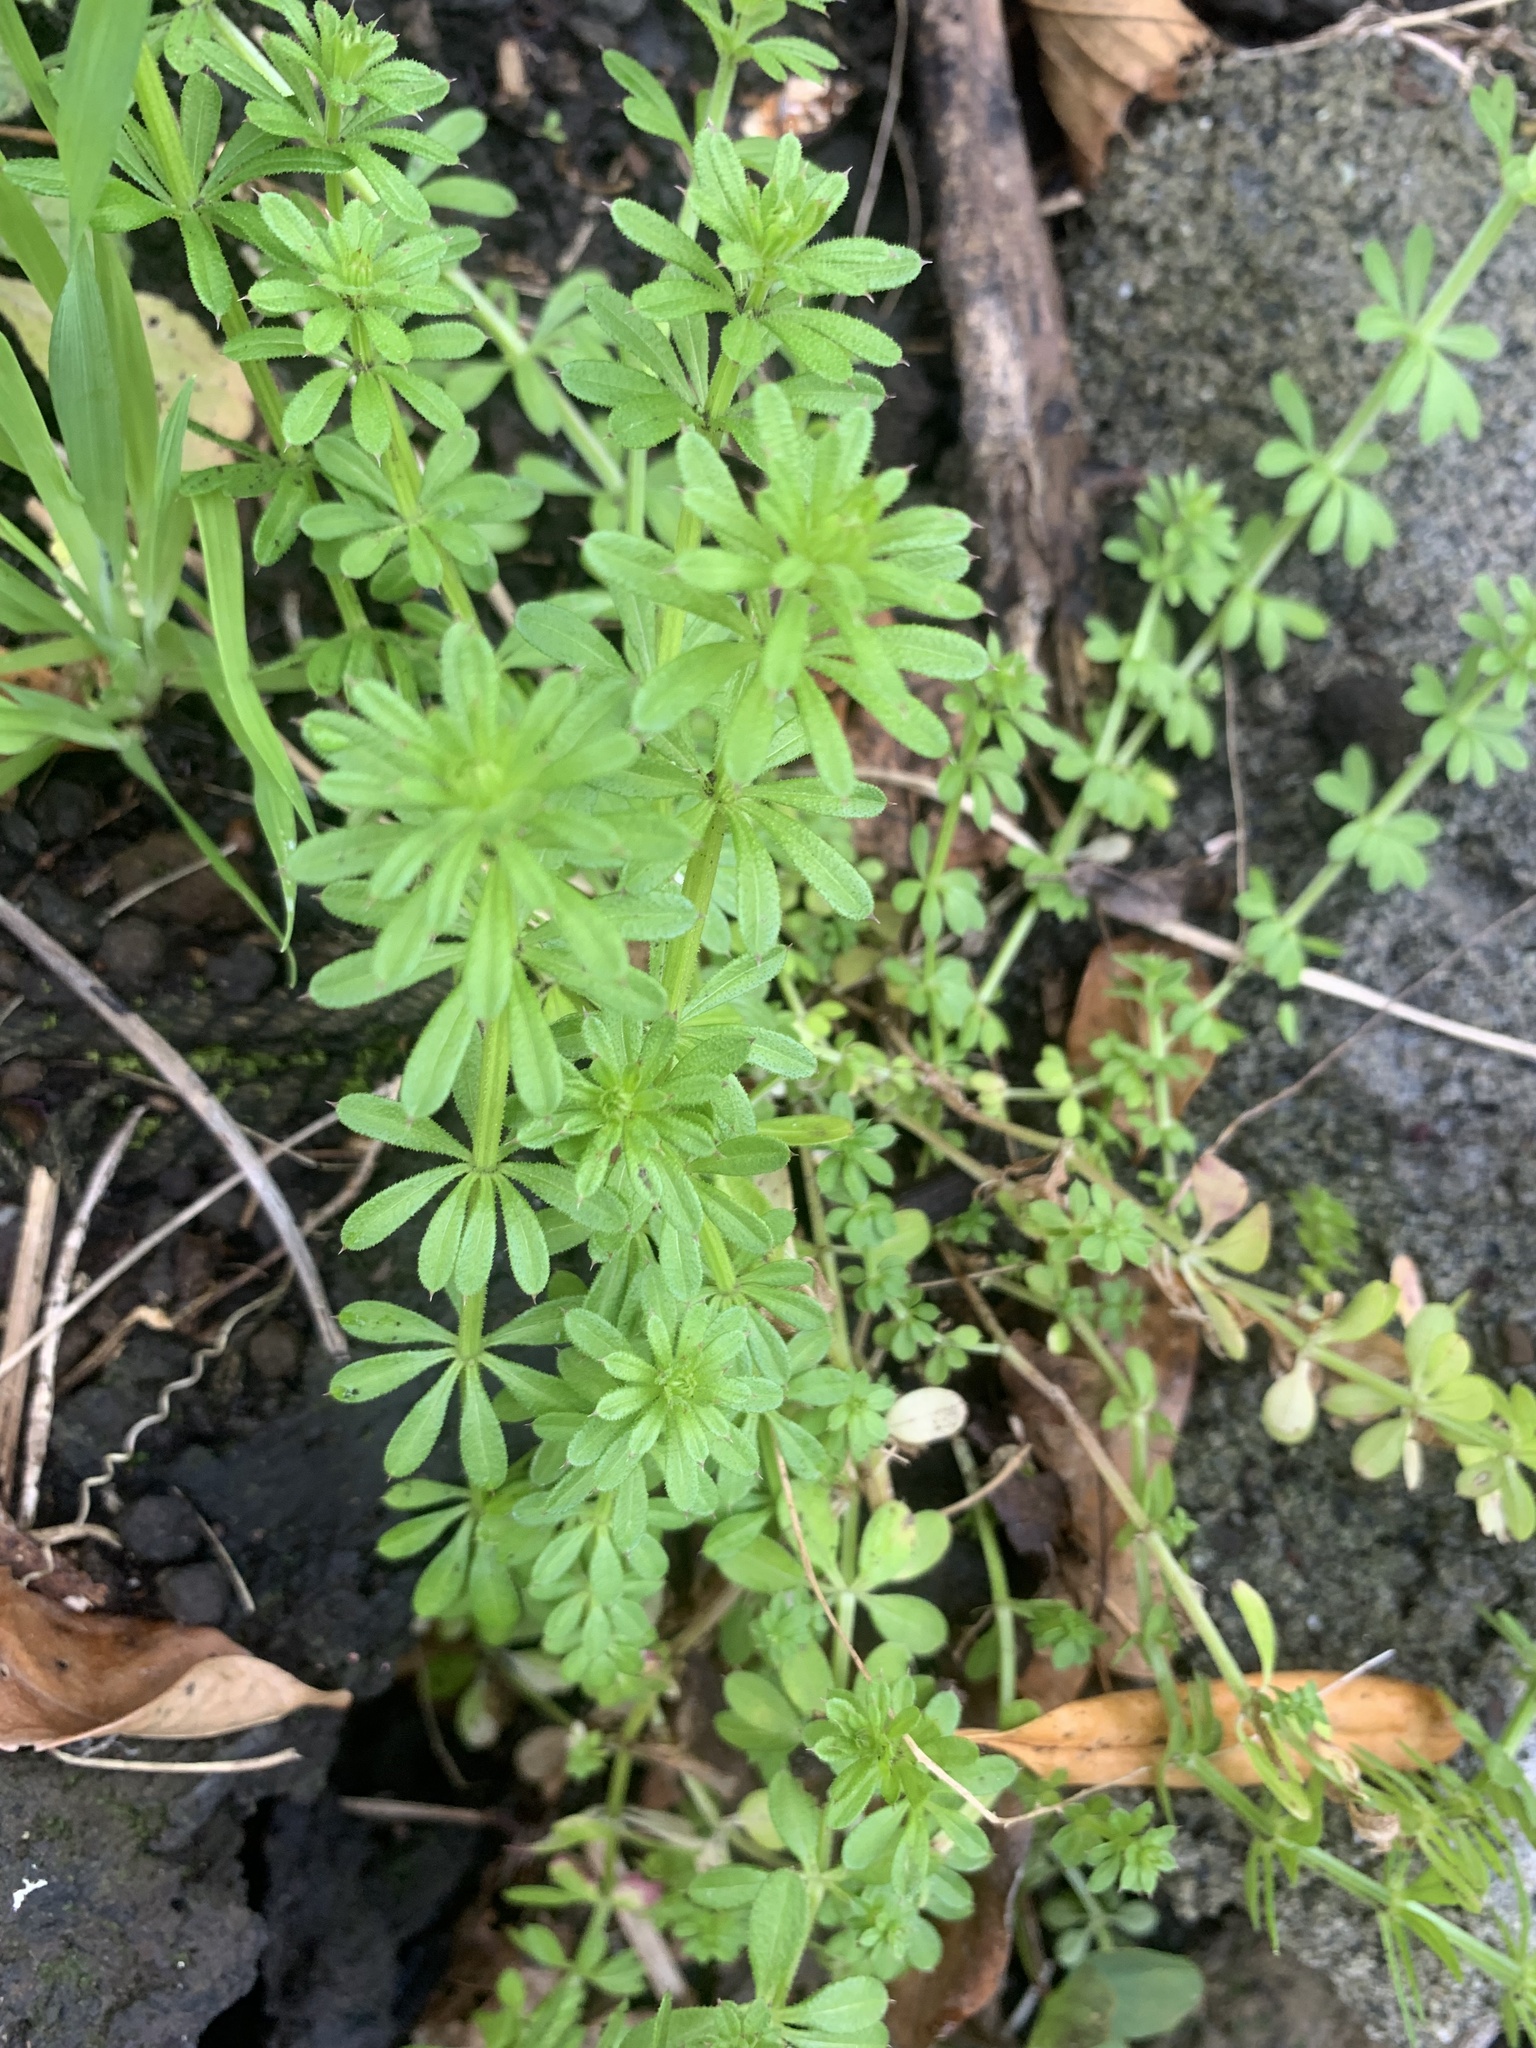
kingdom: Plantae
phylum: Tracheophyta
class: Magnoliopsida
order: Gentianales
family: Rubiaceae
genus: Galium
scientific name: Galium
